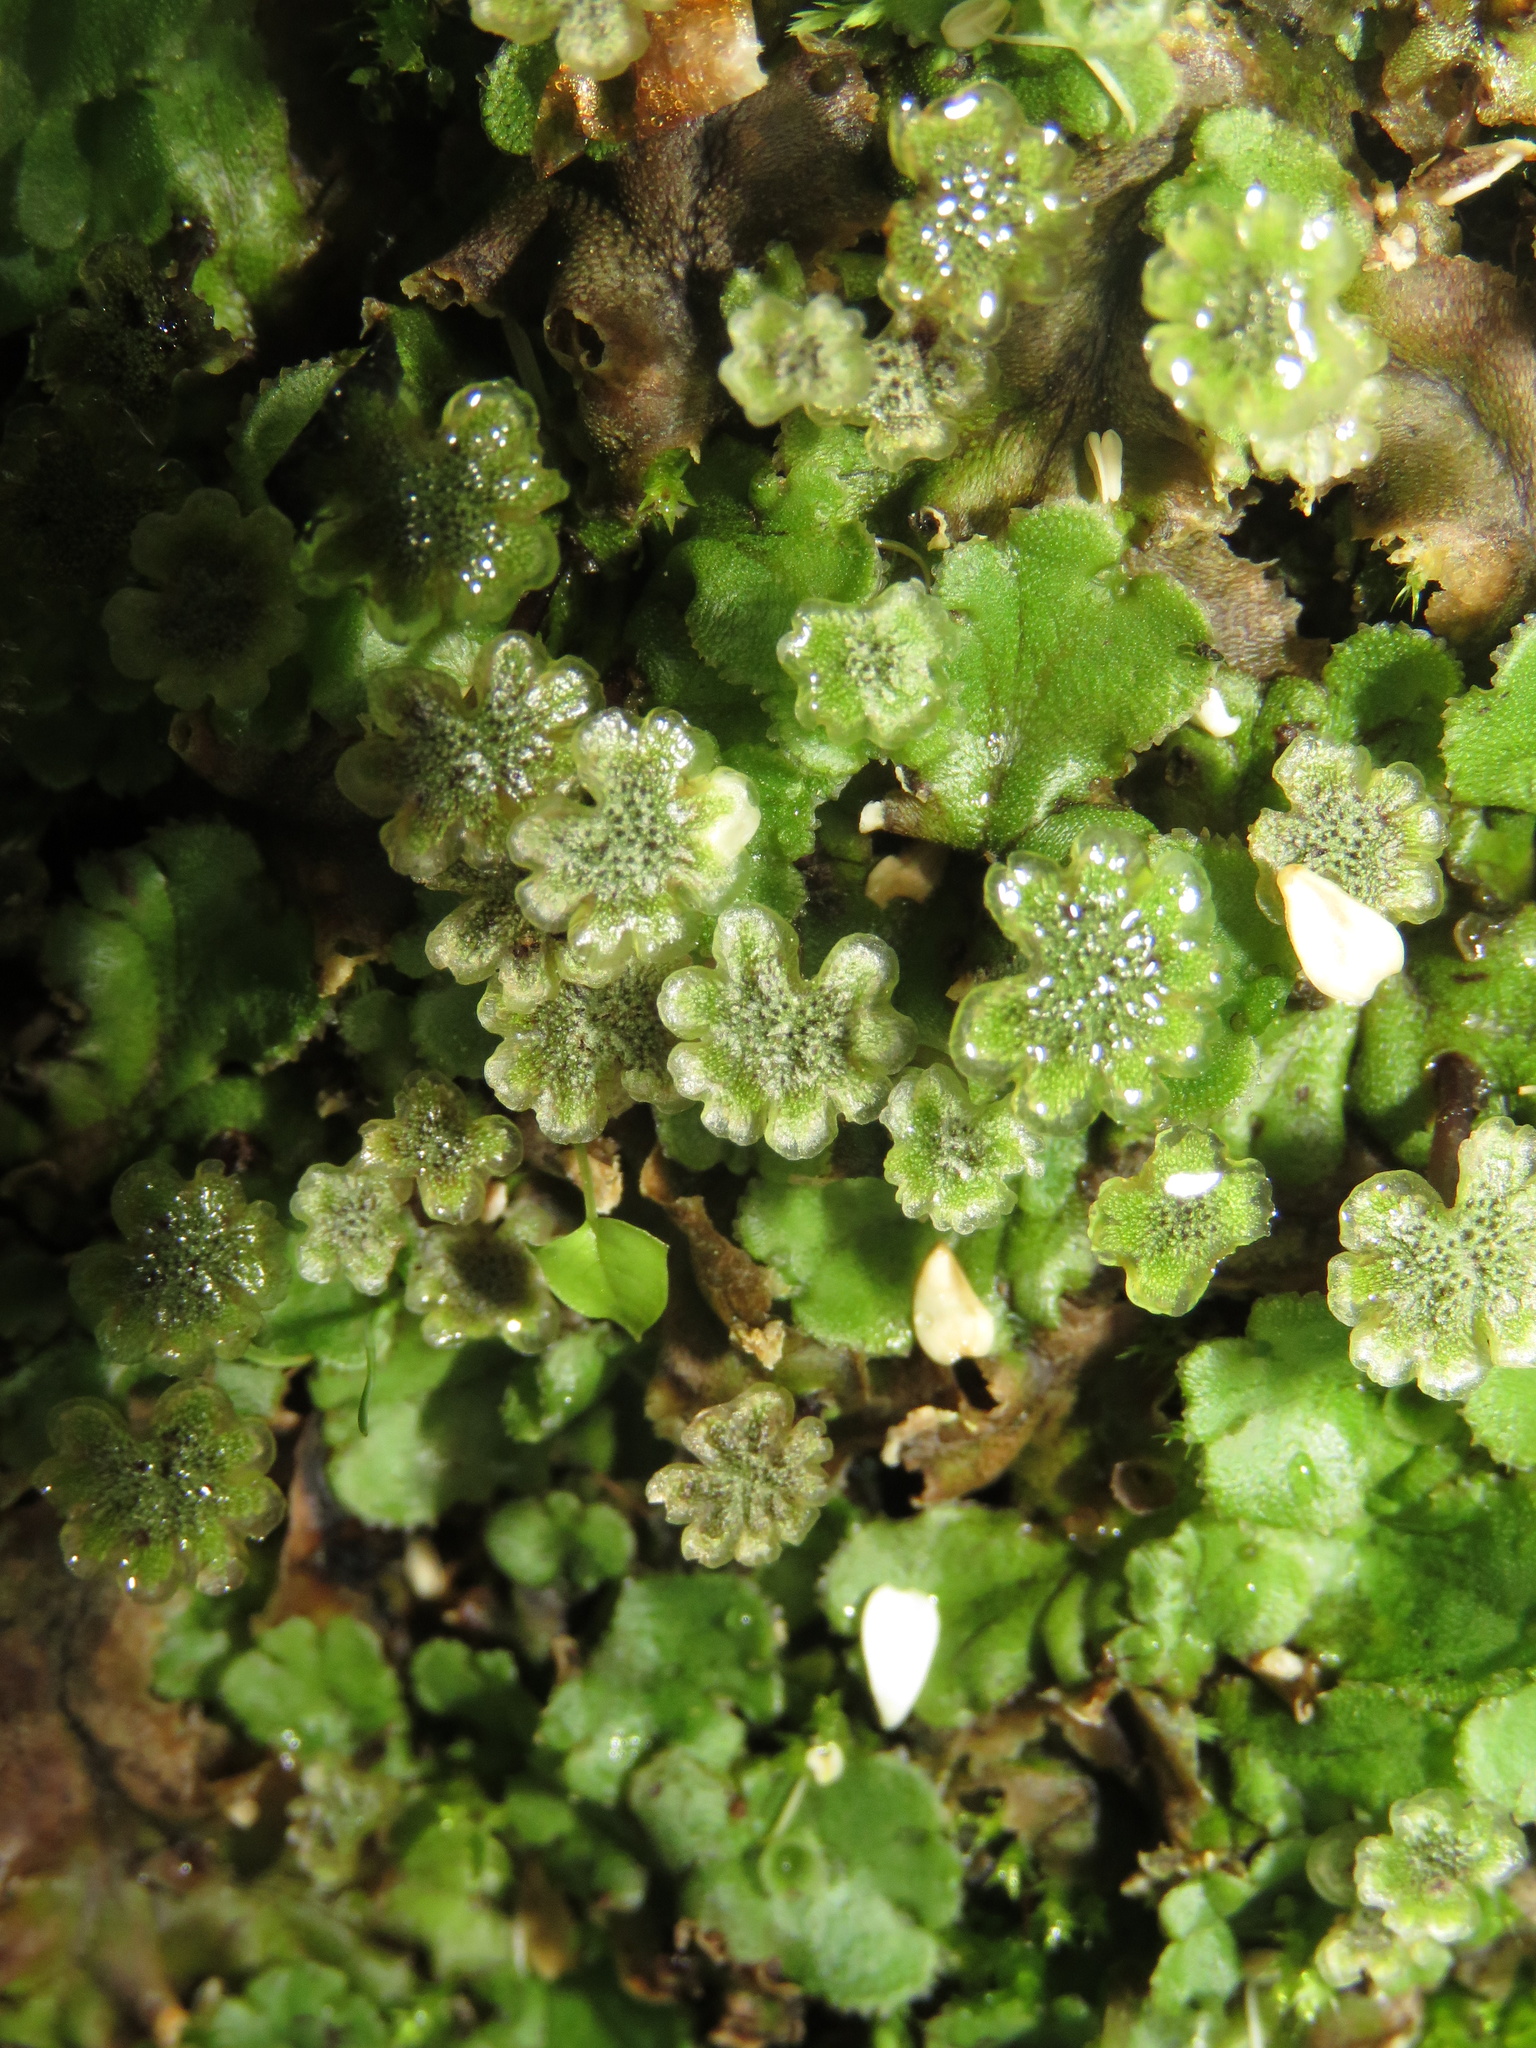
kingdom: Plantae
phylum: Marchantiophyta
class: Marchantiopsida
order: Marchantiales
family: Marchantiaceae
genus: Marchantia
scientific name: Marchantia polymorpha
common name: Common liverwort
